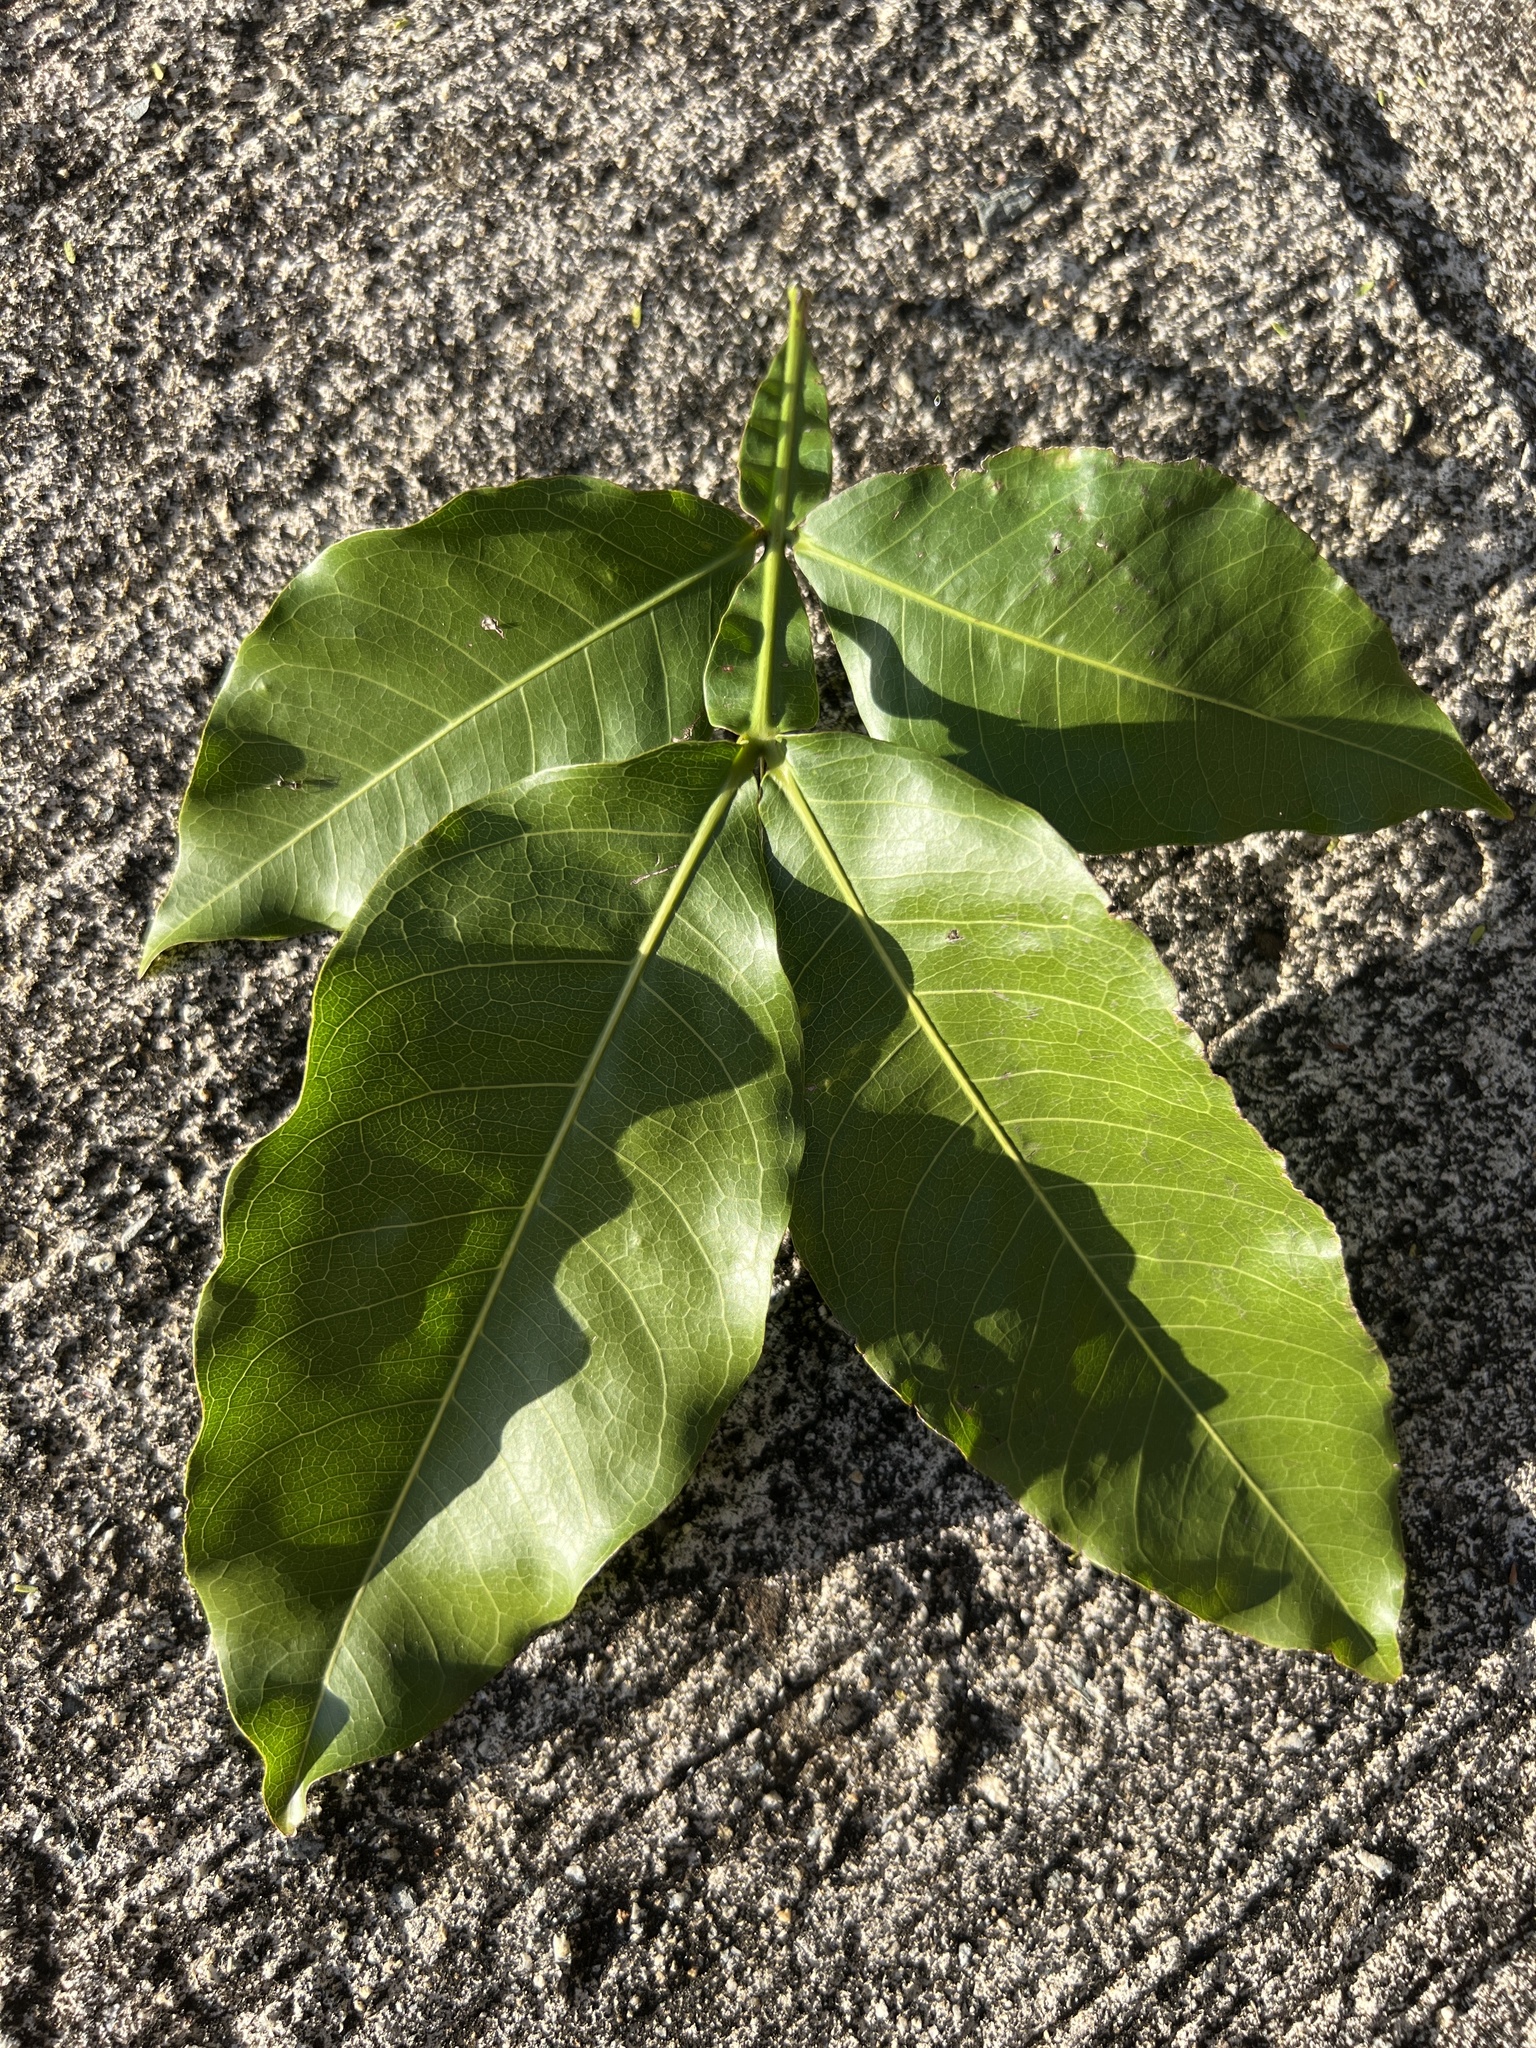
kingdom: Plantae
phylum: Tracheophyta
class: Magnoliopsida
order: Sapindales
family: Sapindaceae
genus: Melicoccus
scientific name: Melicoccus bijugatus
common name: Spanish lime
